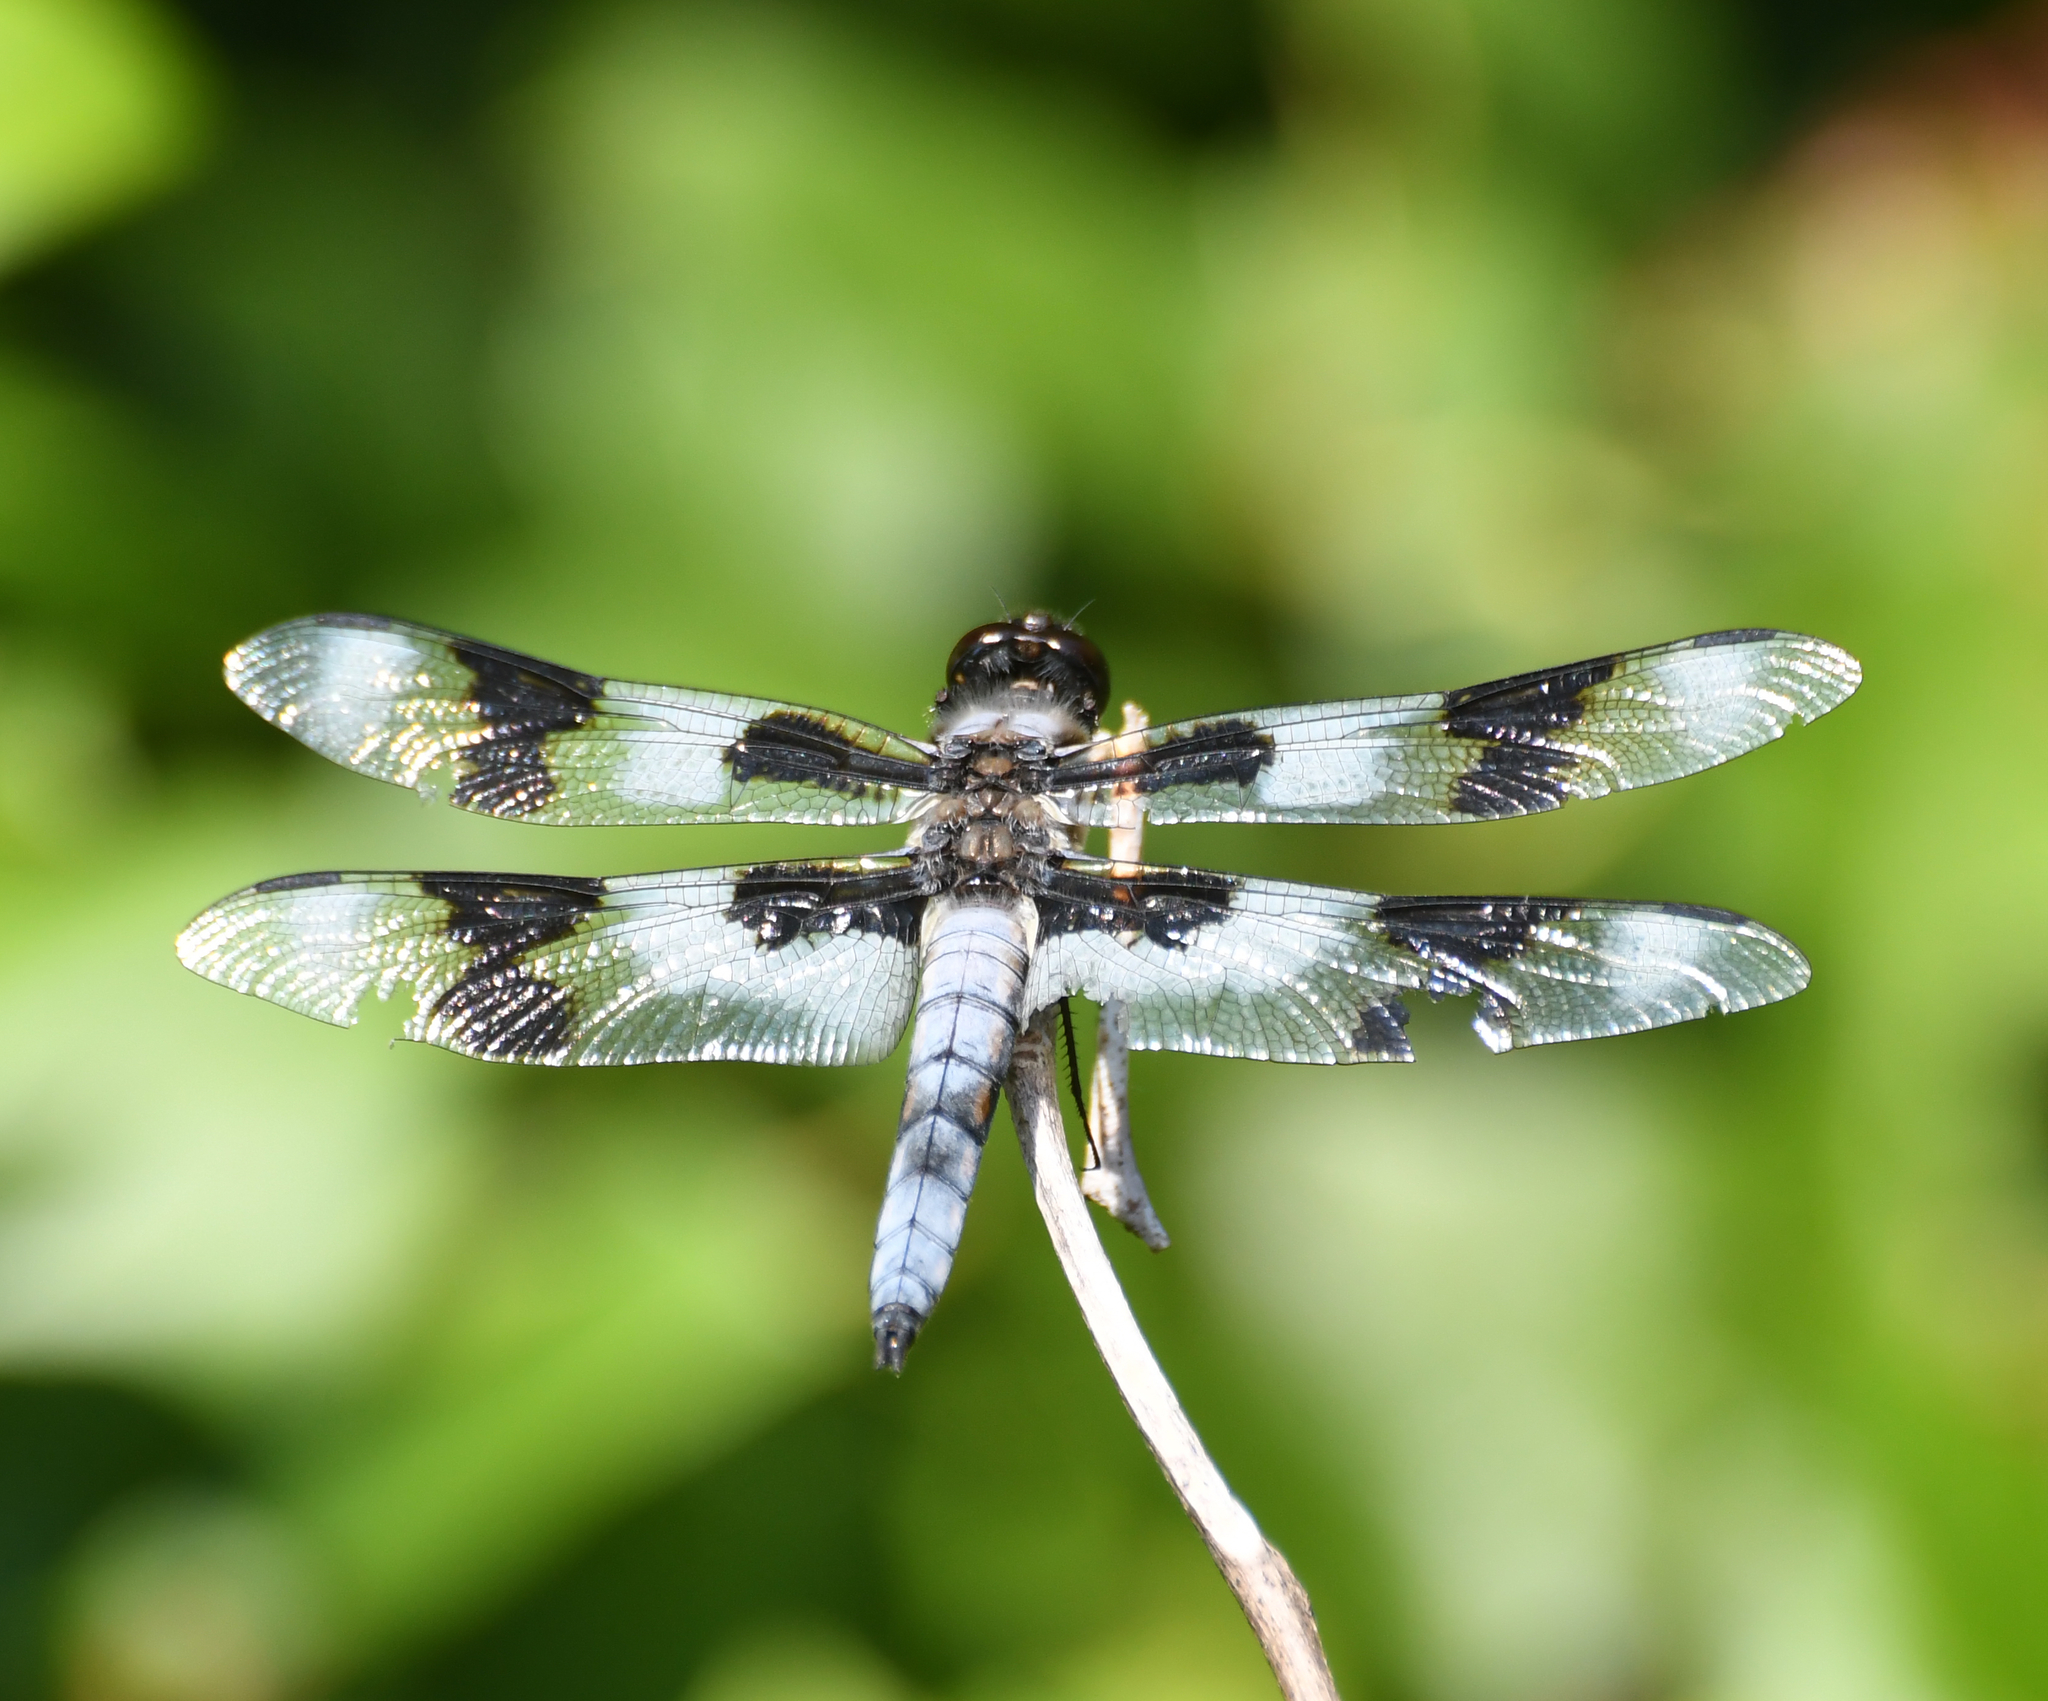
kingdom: Animalia
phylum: Arthropoda
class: Insecta
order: Odonata
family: Libellulidae
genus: Libellula
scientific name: Libellula forensis
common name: Eight-spotted skimmer
